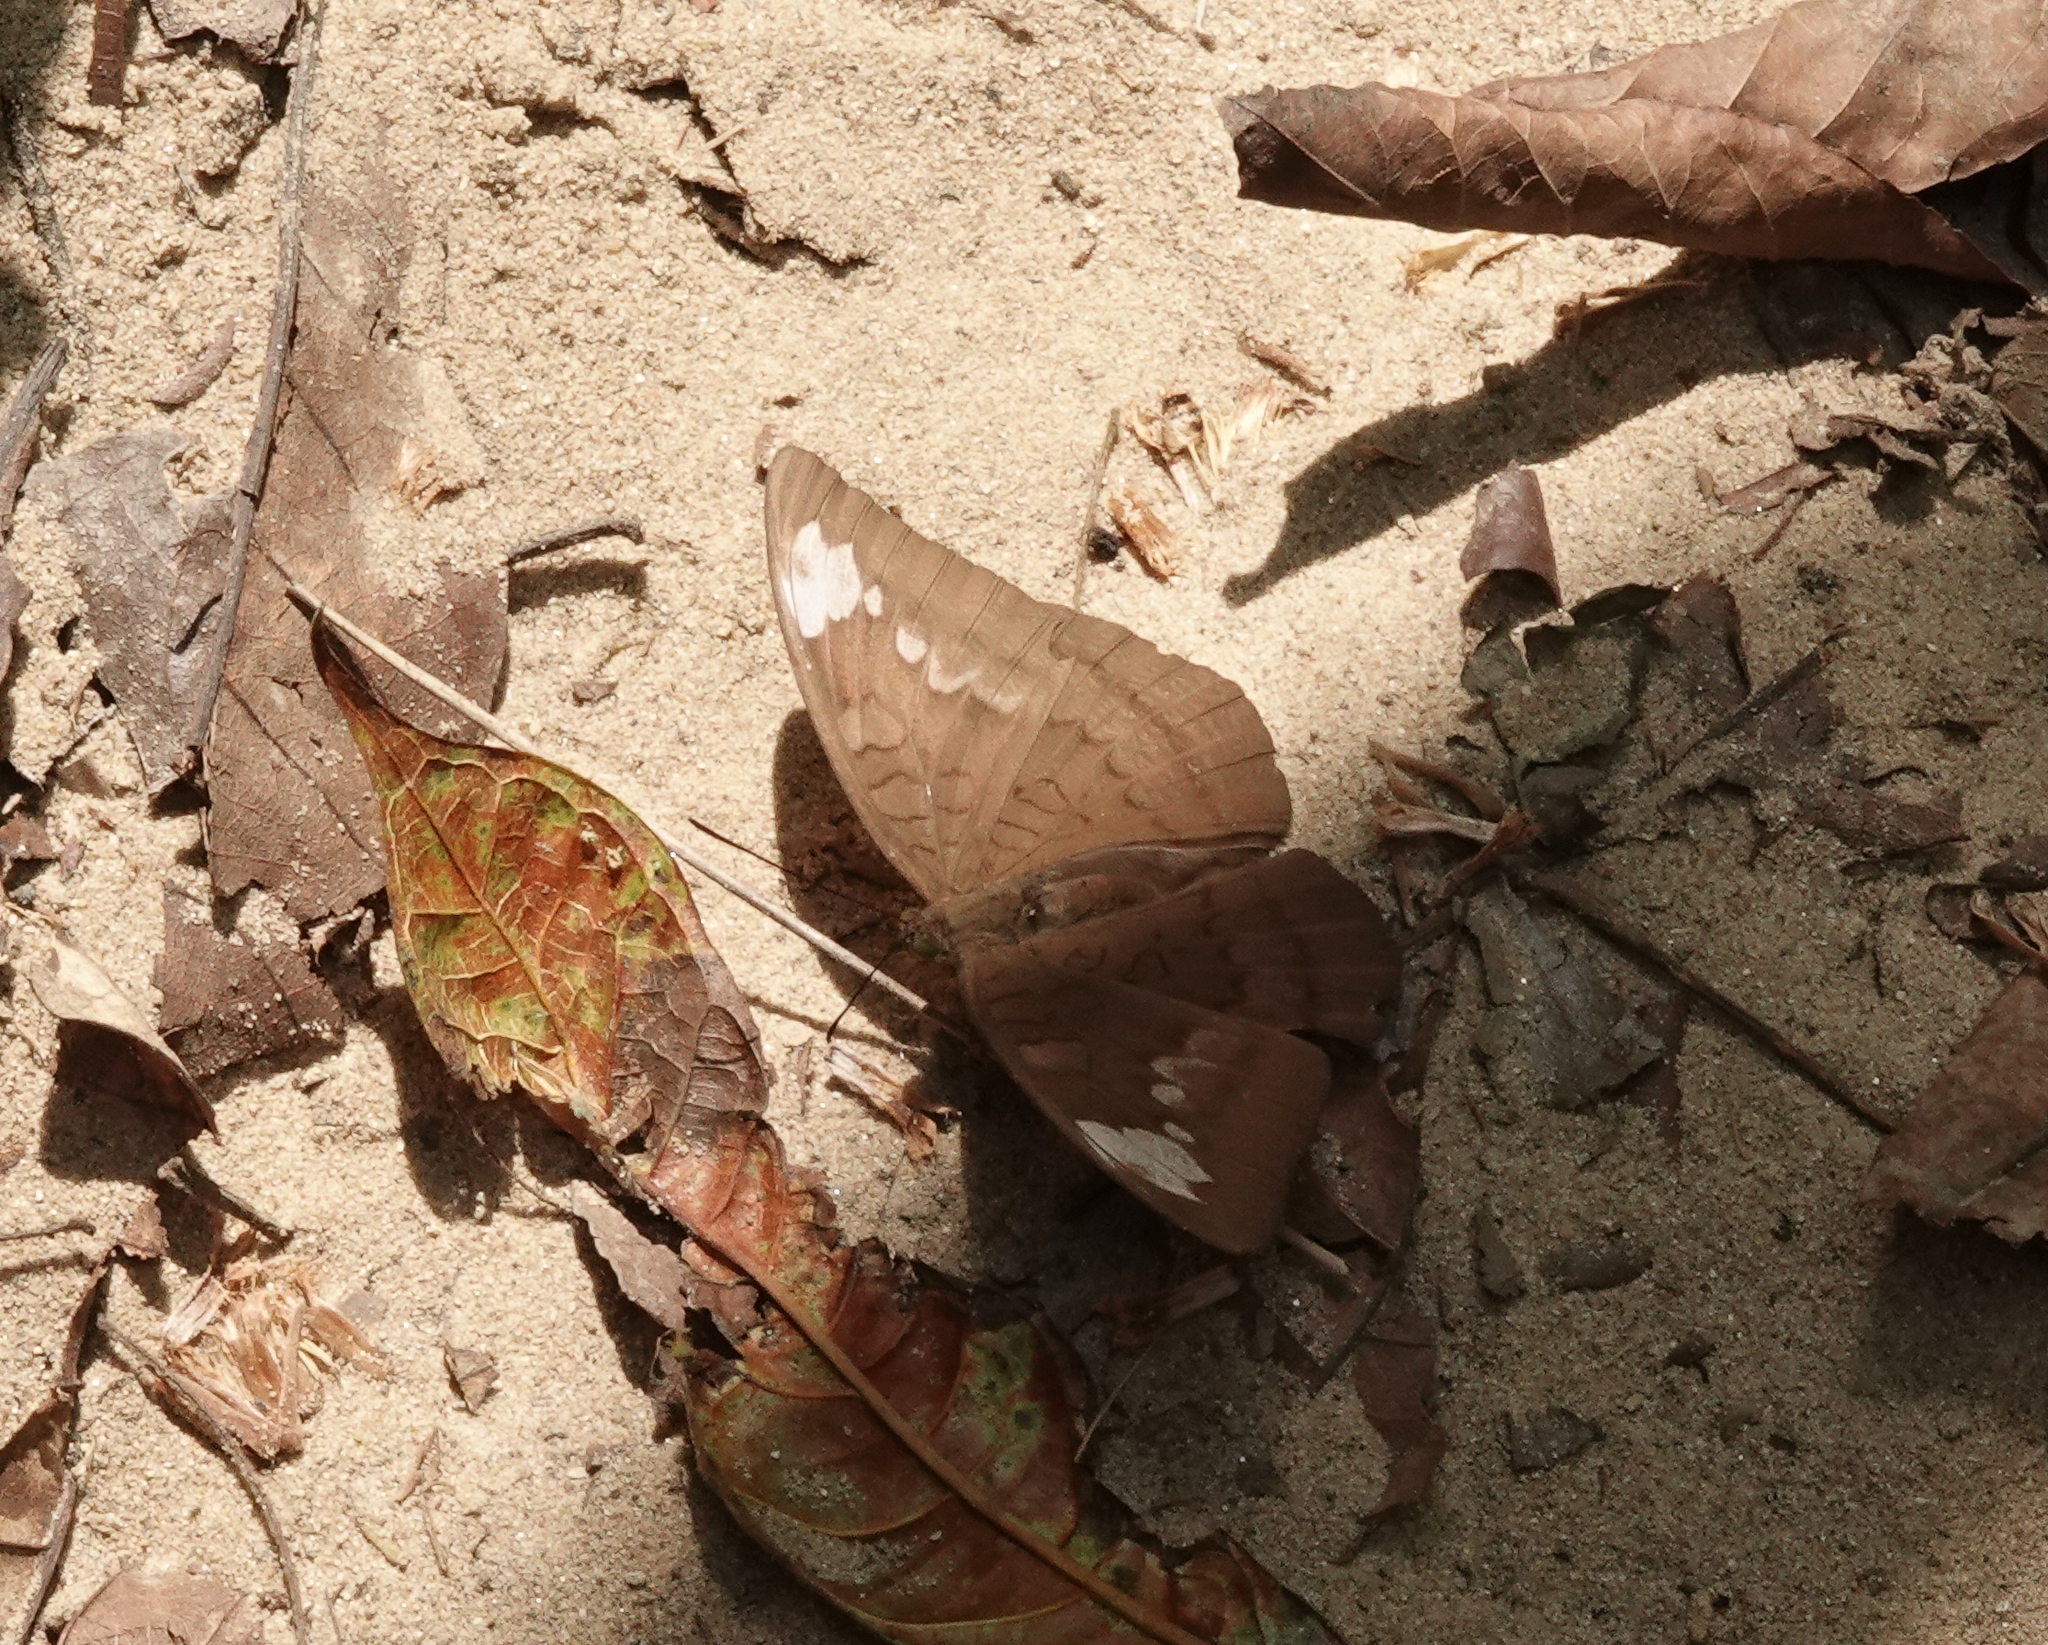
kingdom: Animalia
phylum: Arthropoda
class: Insecta
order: Lepidoptera
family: Nymphalidae
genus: Euthalia
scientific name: Euthalia aconthea
